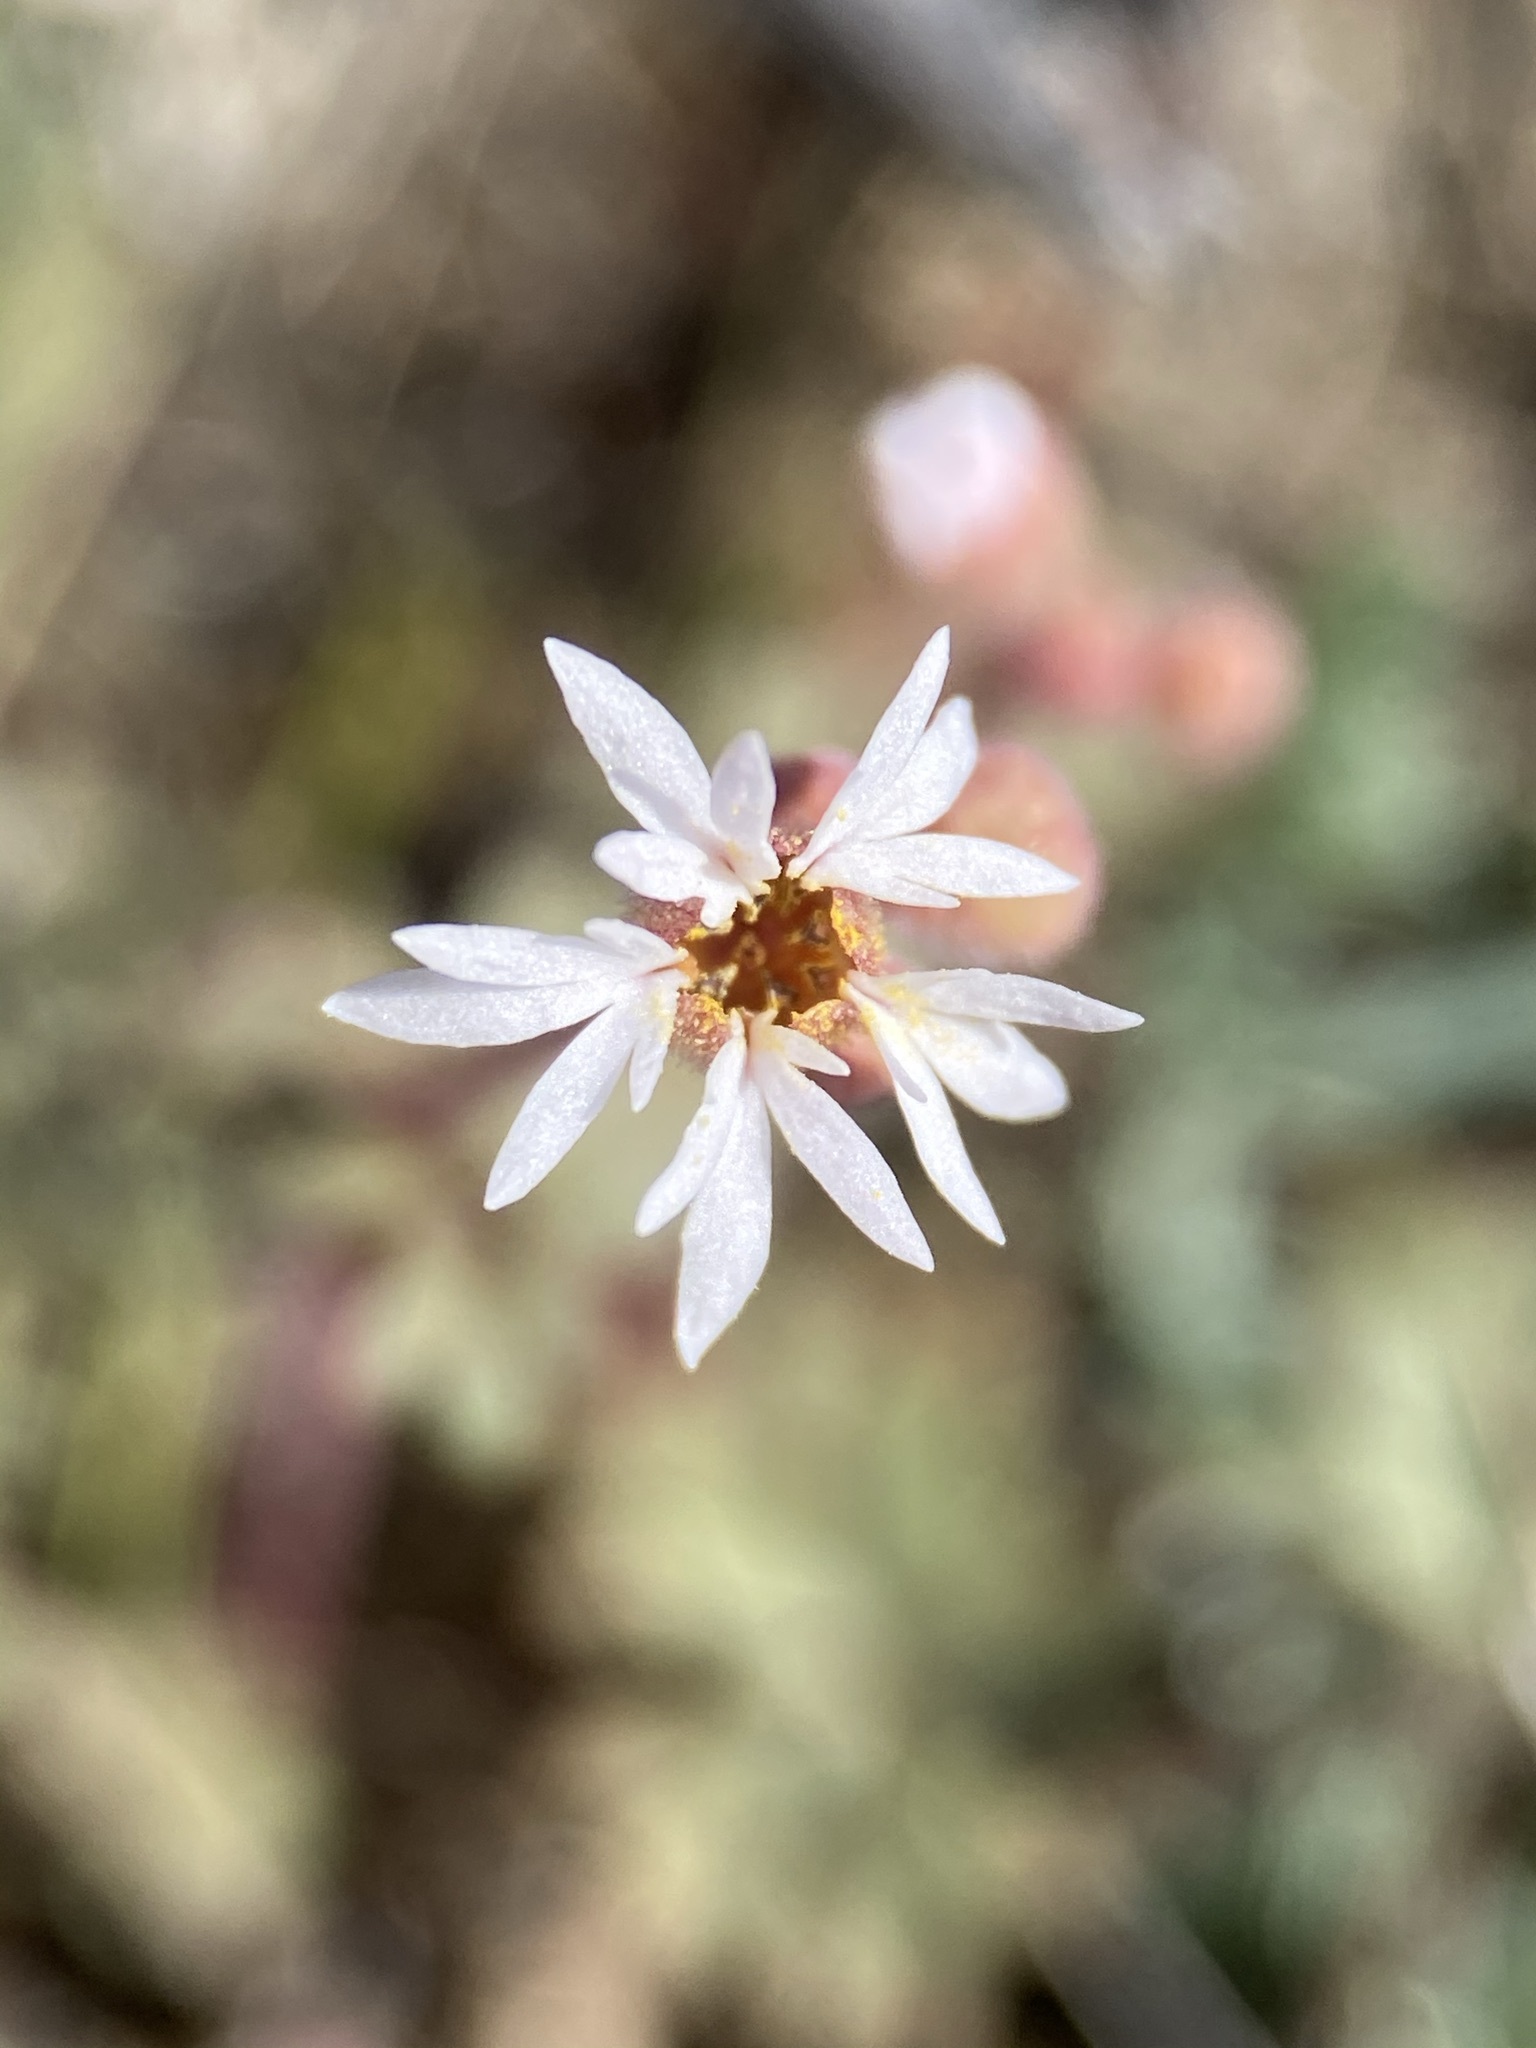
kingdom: Plantae
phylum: Tracheophyta
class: Magnoliopsida
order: Saxifragales
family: Saxifragaceae
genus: Lithophragma
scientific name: Lithophragma glabrum
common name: Bulbous prairie-star
